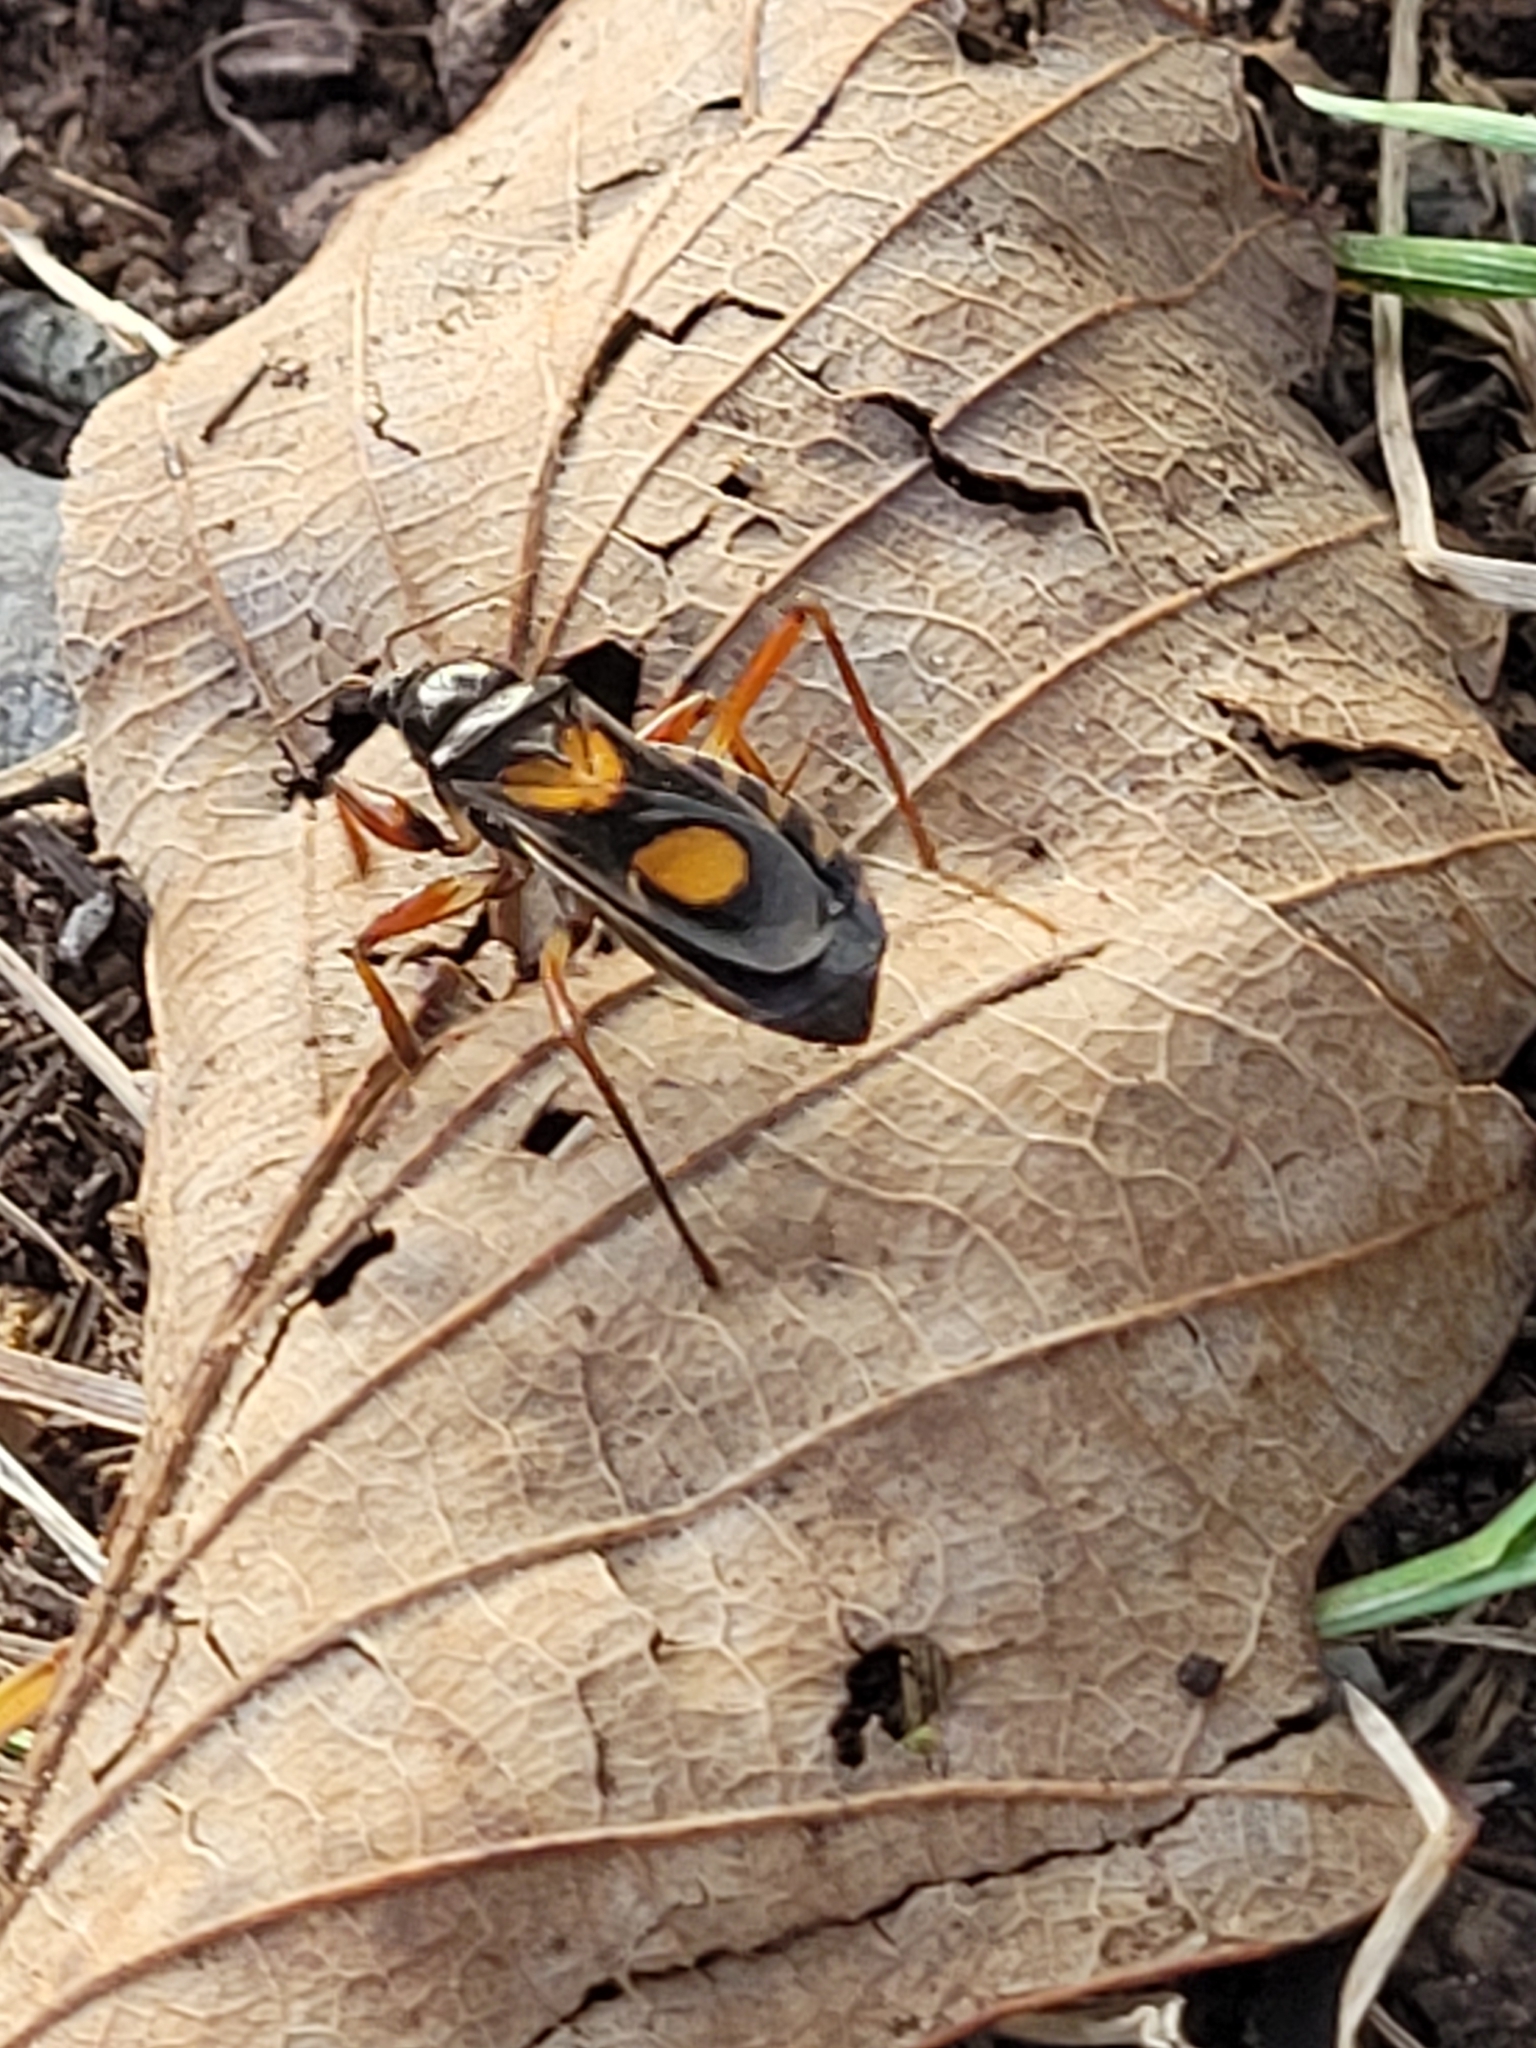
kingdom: Animalia
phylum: Arthropoda
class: Insecta
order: Hemiptera
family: Reduviidae
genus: Rasahus
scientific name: Rasahus hamatus
